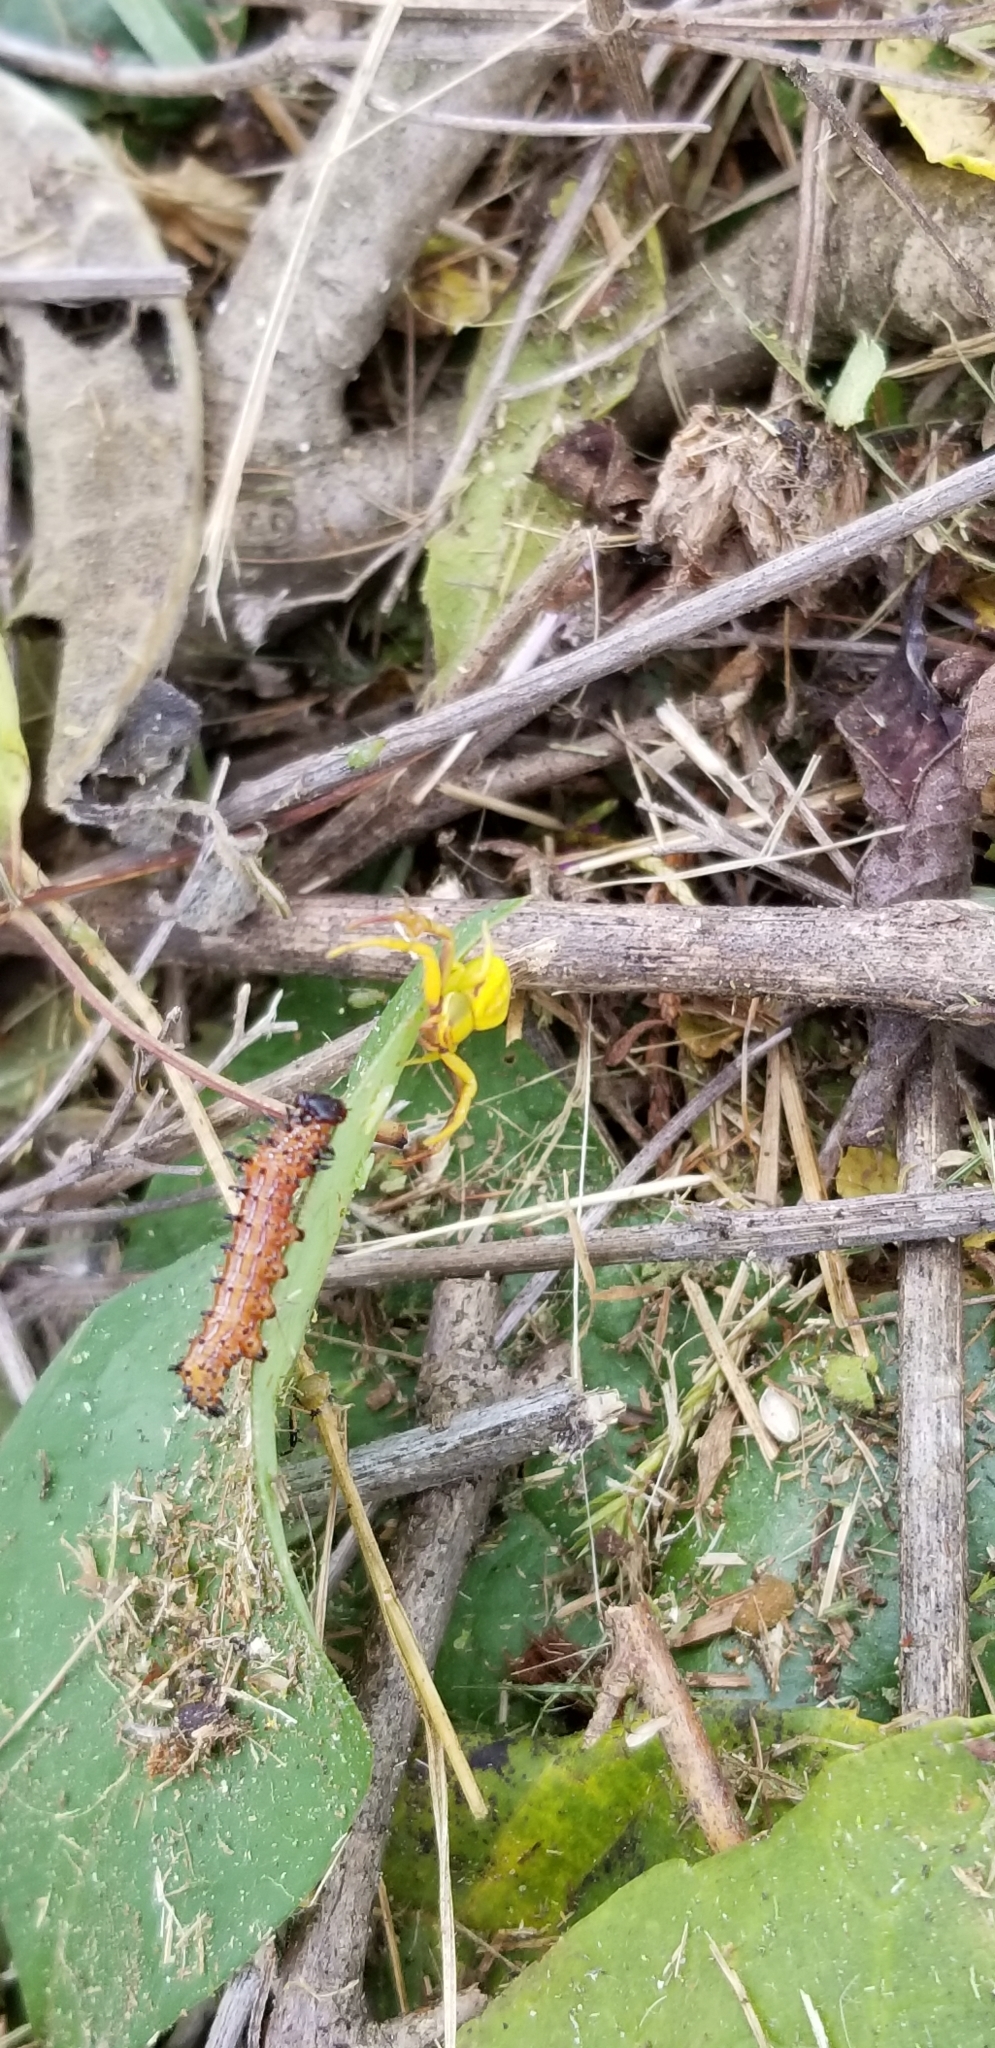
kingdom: Animalia
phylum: Arthropoda
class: Insecta
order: Lepidoptera
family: Notodontidae
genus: Schizura
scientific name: Schizura
